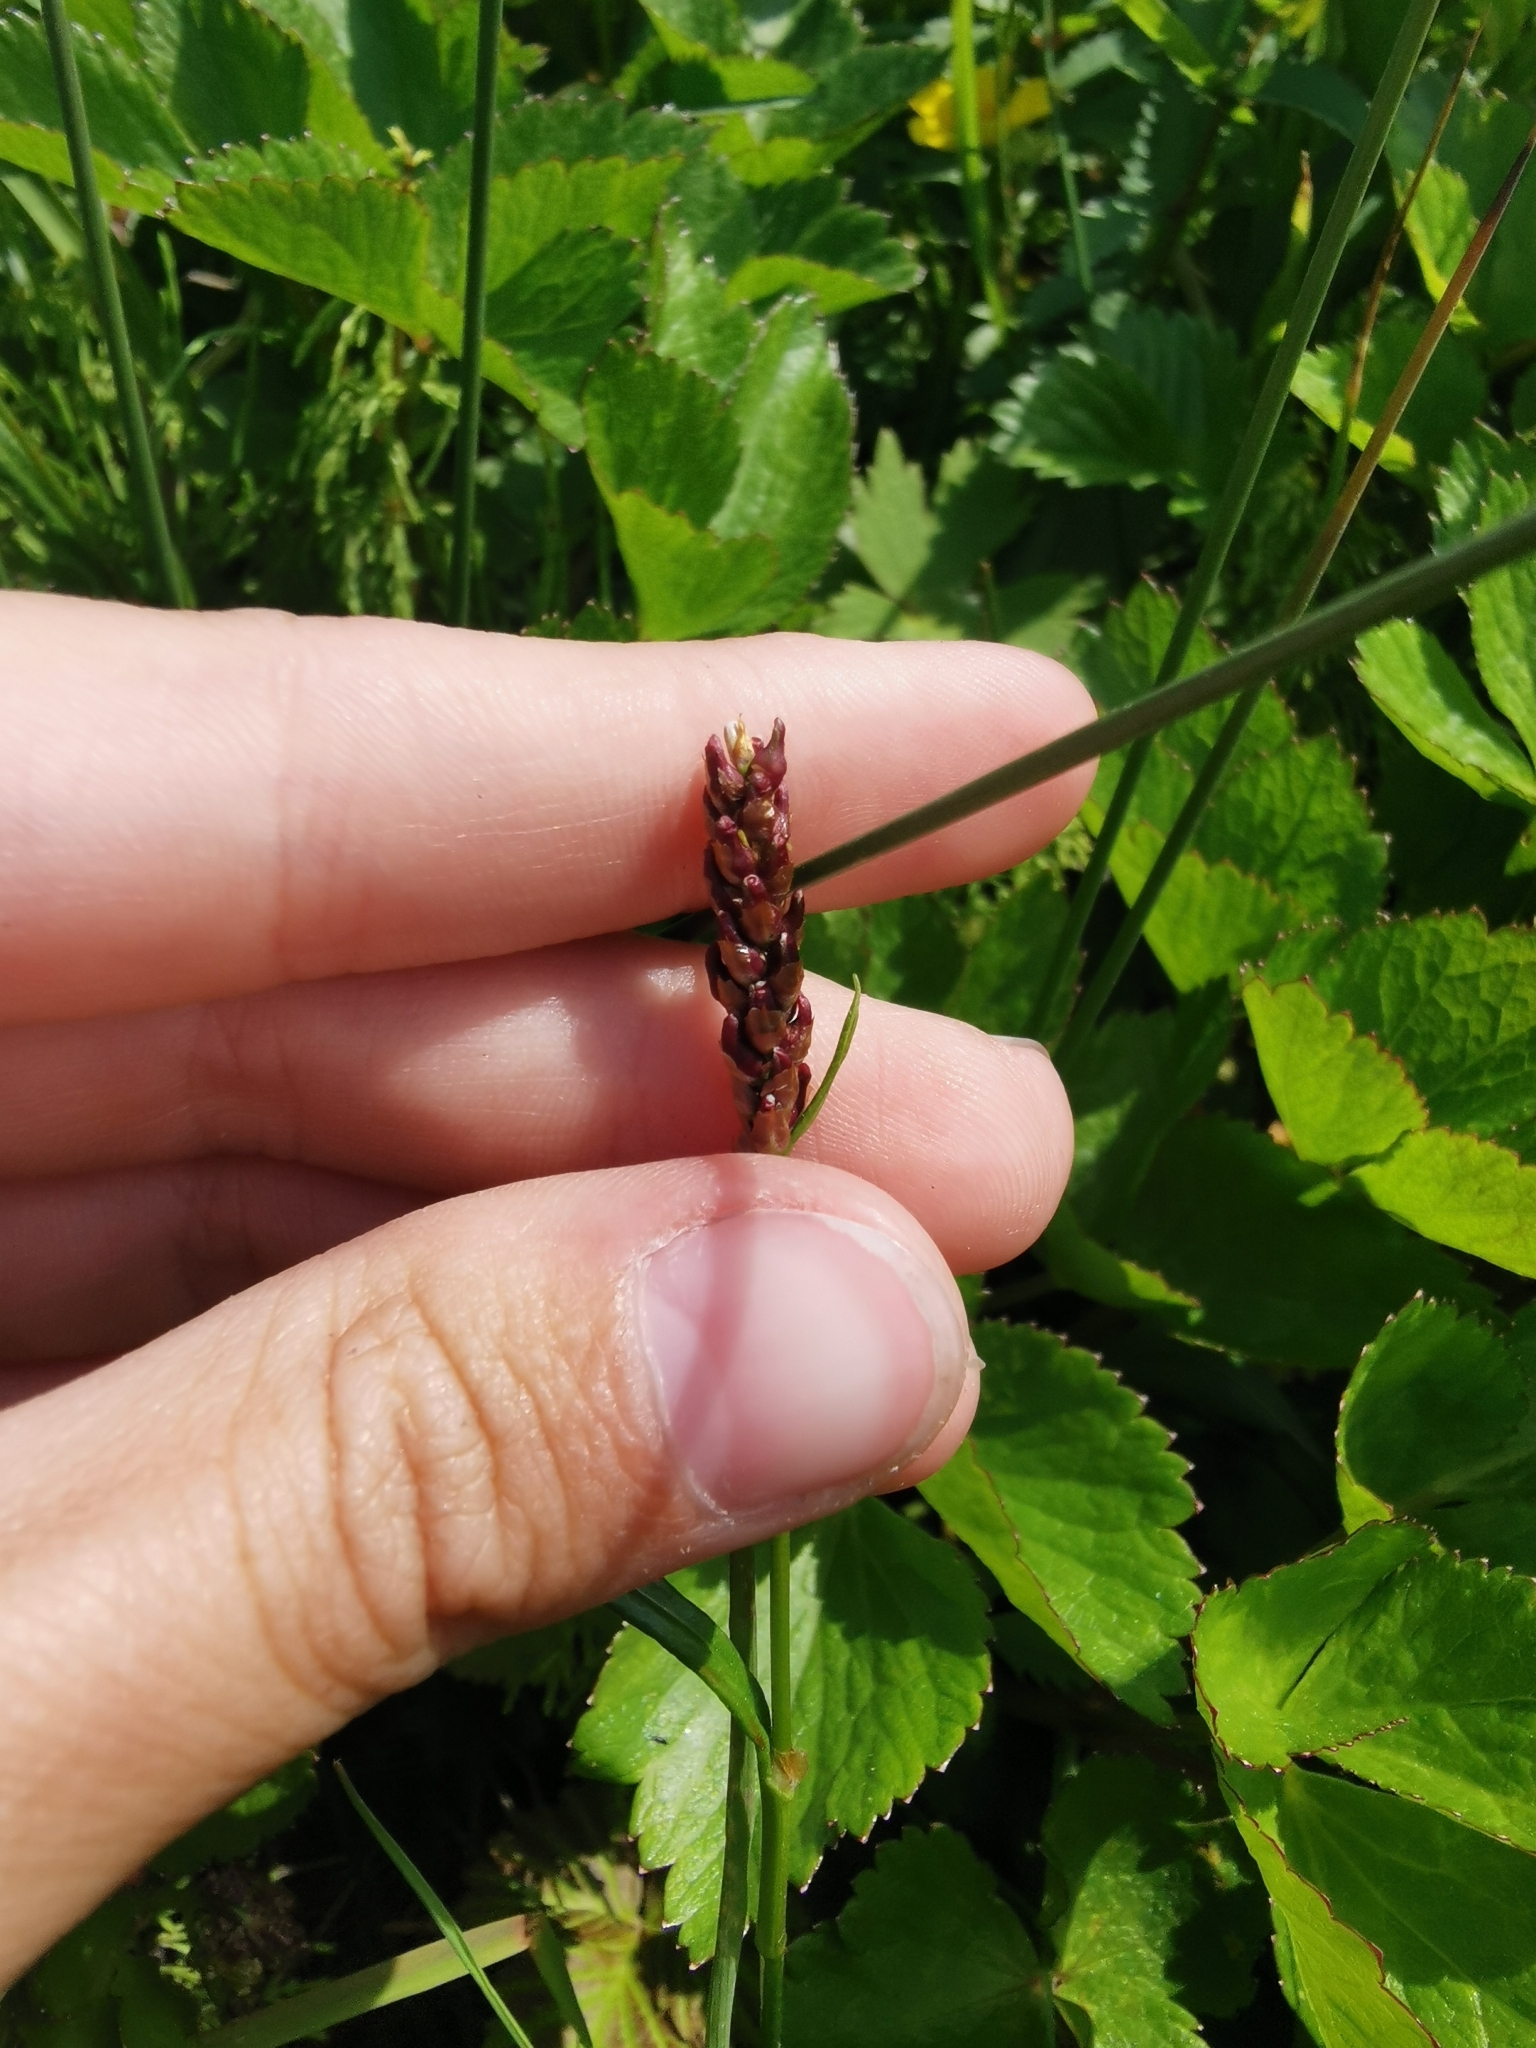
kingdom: Plantae
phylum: Tracheophyta
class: Magnoliopsida
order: Caryophyllales
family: Polygonaceae
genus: Bistorta
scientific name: Bistorta vivipara
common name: Alpine bistort
